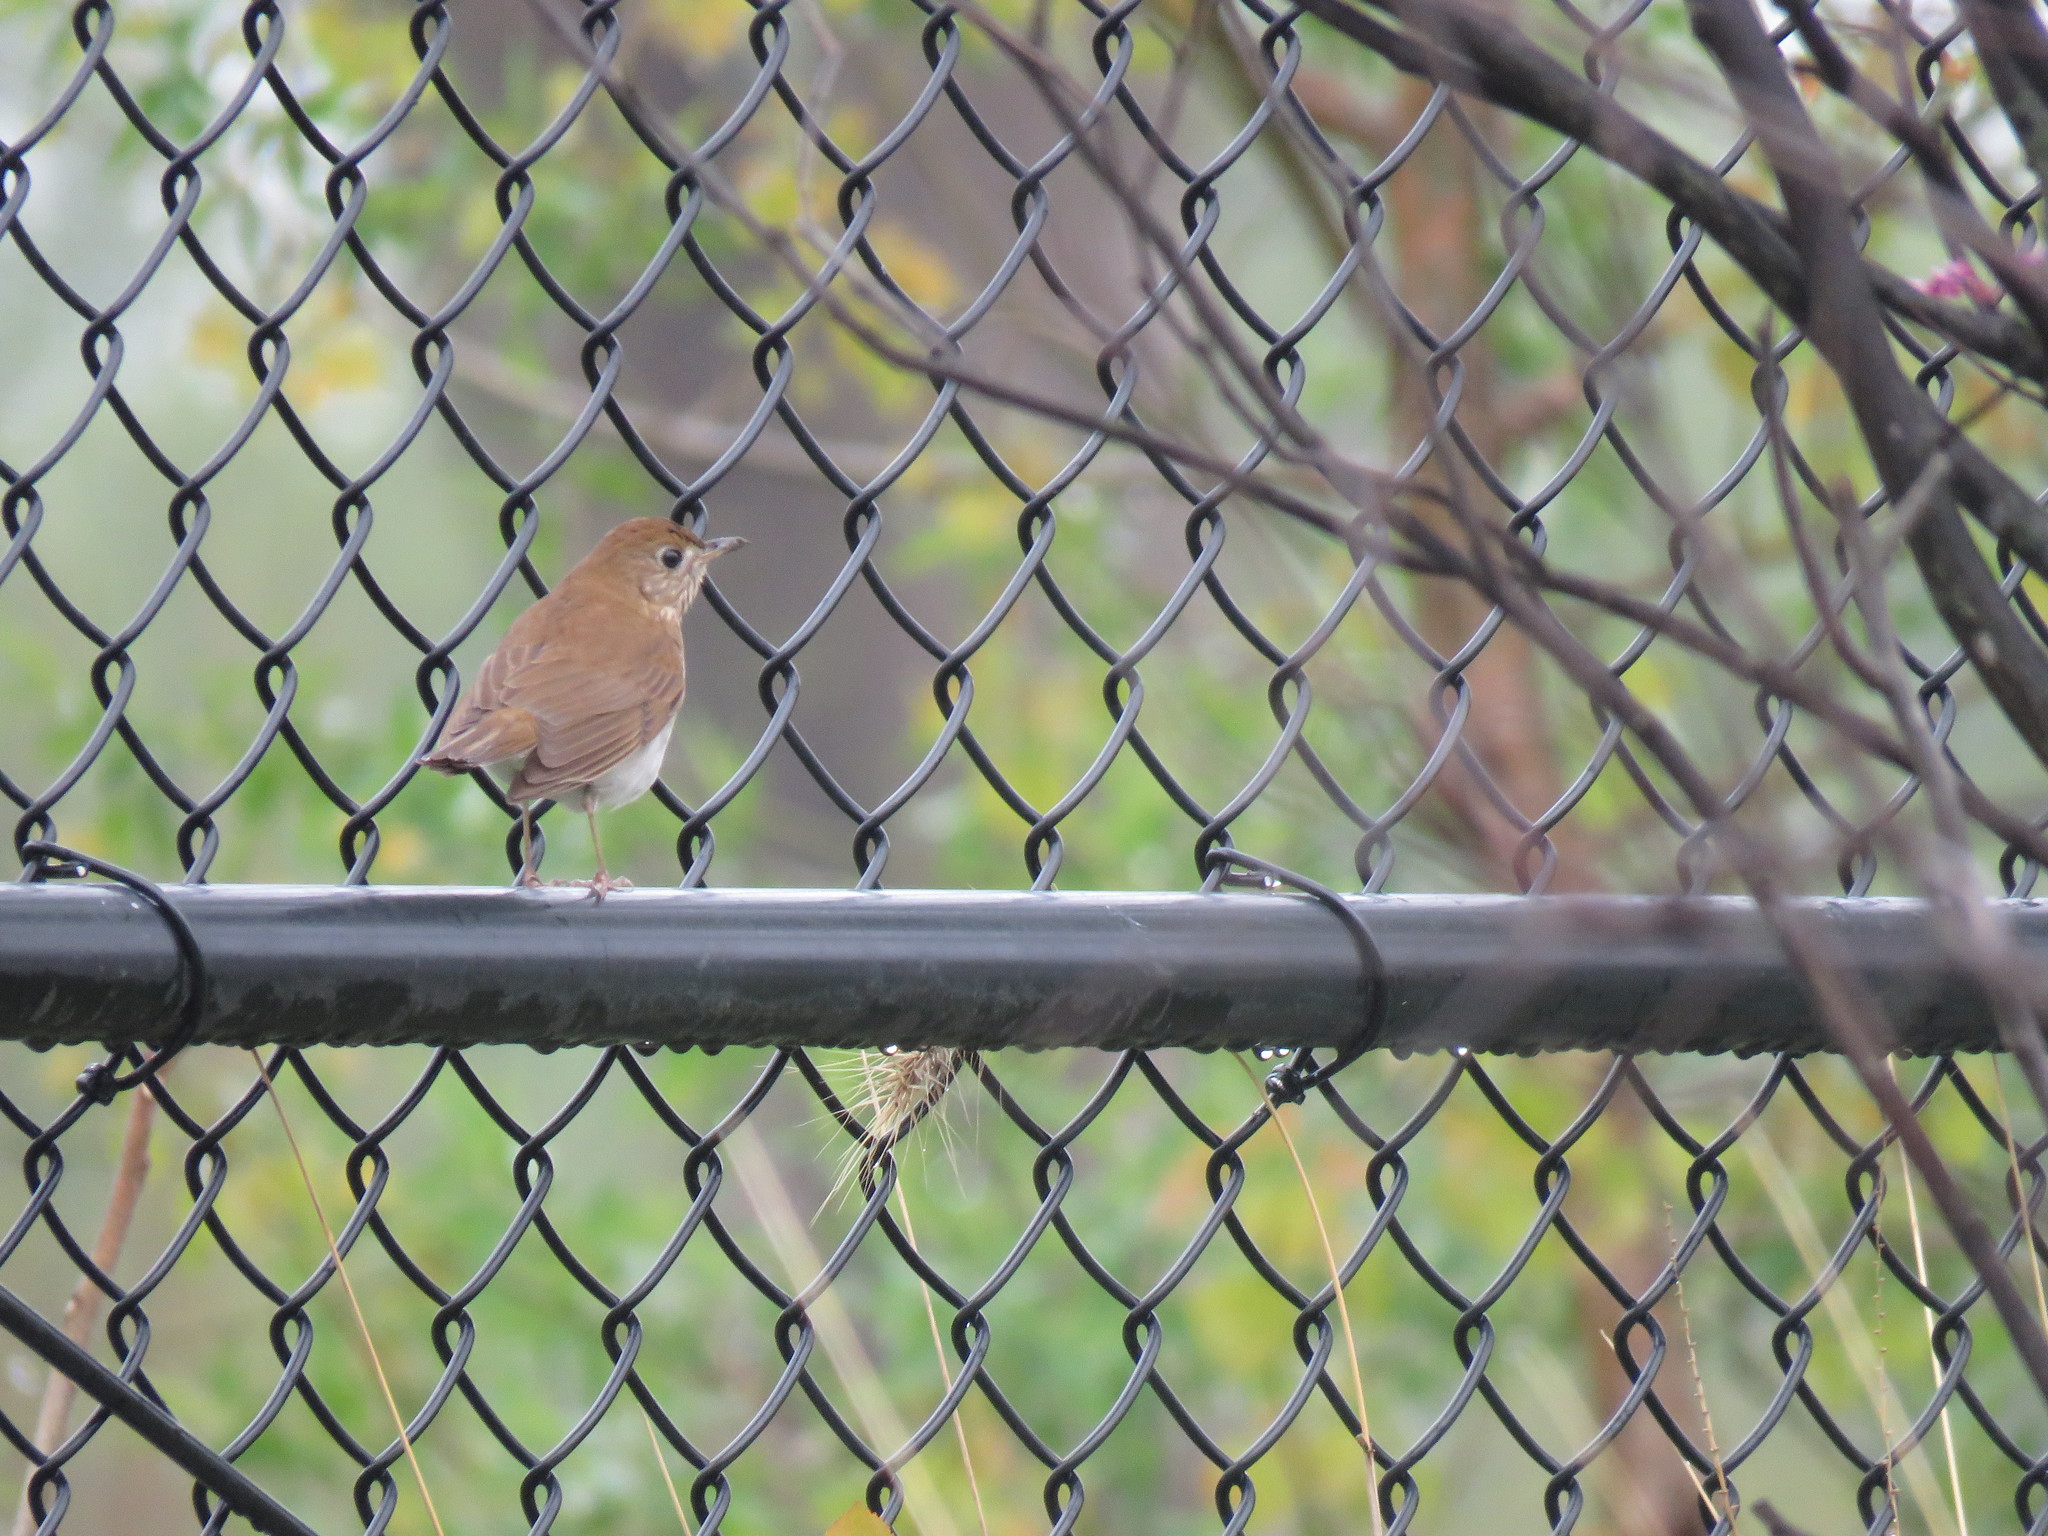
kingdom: Animalia
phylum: Chordata
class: Aves
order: Passeriformes
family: Turdidae
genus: Catharus
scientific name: Catharus fuscescens
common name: Veery
